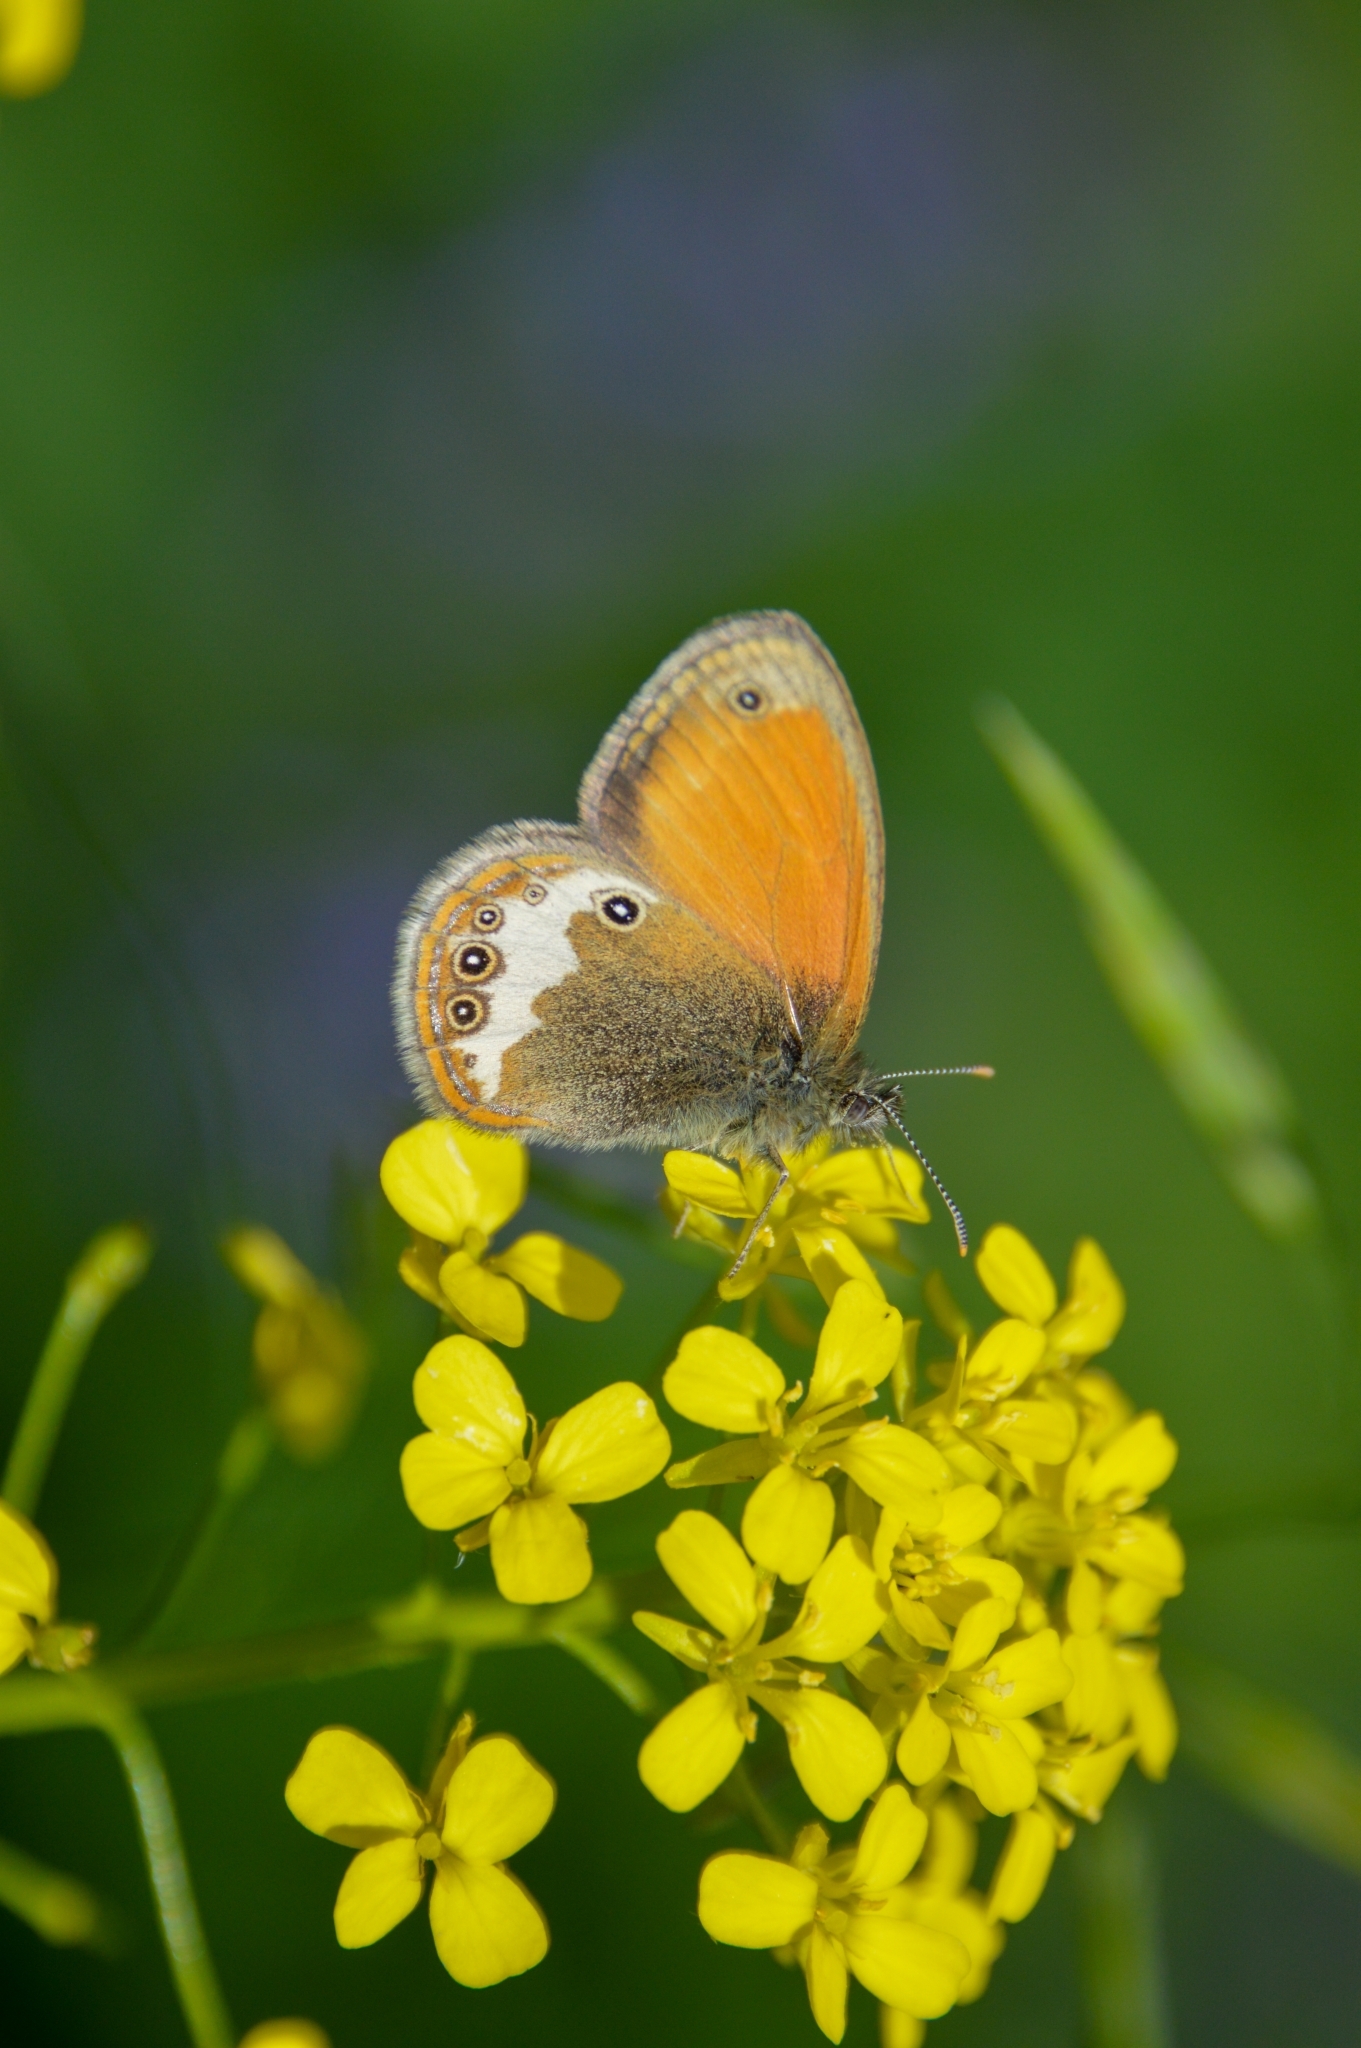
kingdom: Animalia
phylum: Arthropoda
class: Insecta
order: Lepidoptera
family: Nymphalidae
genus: Coenonympha
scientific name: Coenonympha arcania
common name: Pearly heath
